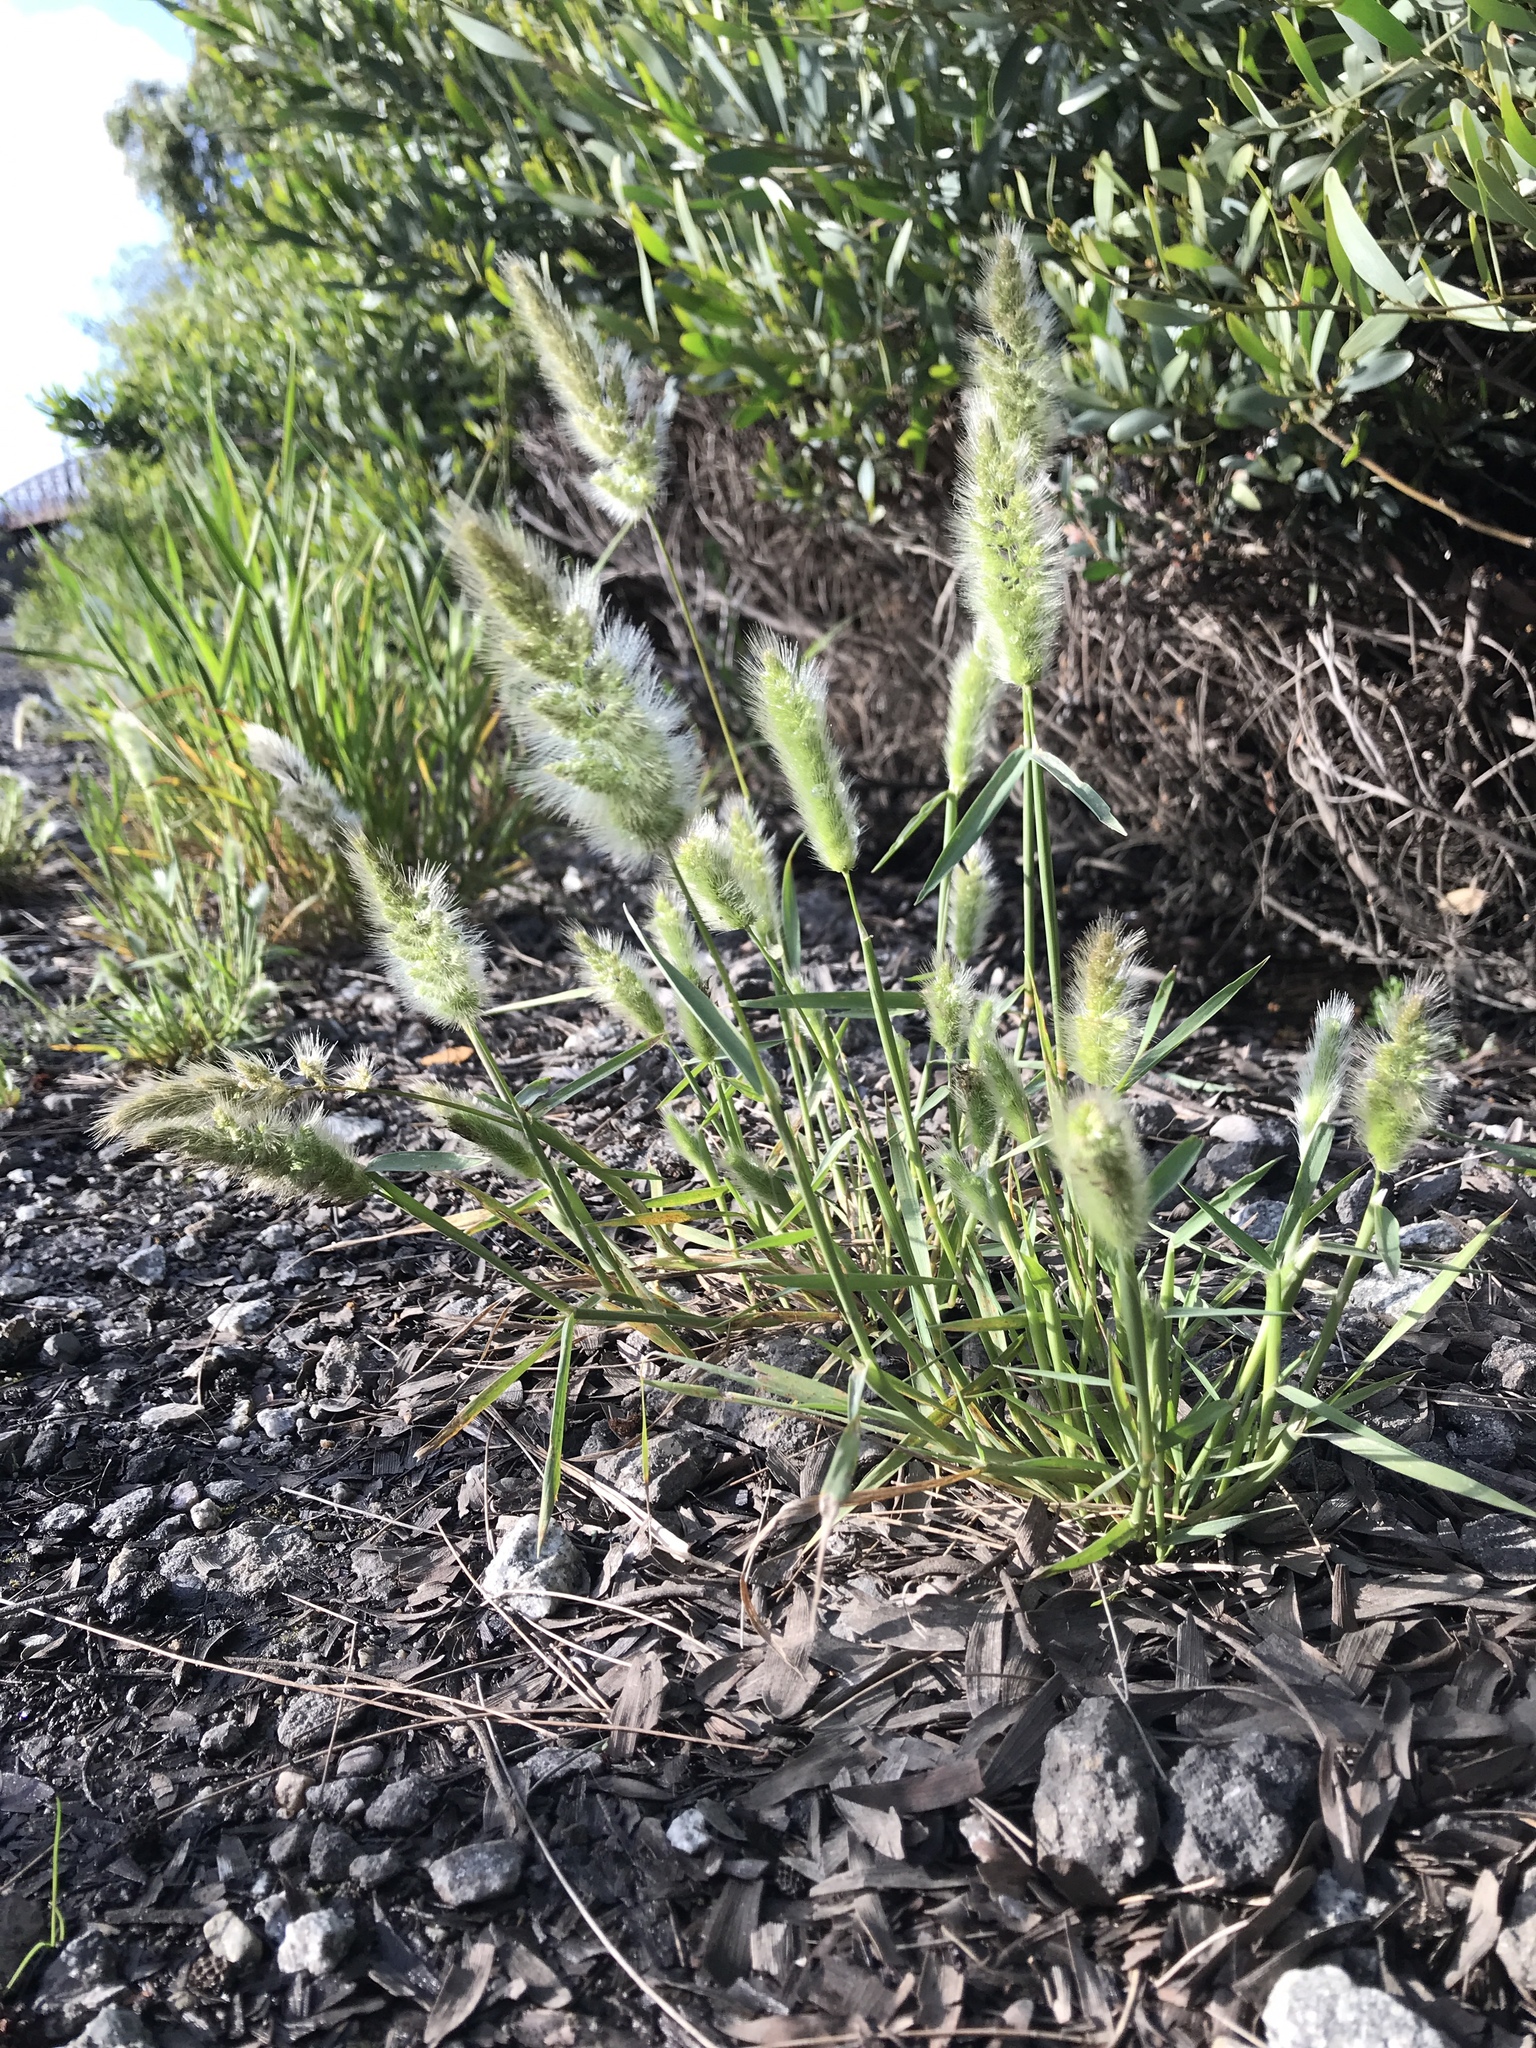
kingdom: Plantae
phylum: Tracheophyta
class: Liliopsida
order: Poales
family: Poaceae
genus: Polypogon
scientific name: Polypogon monspeliensis
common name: Annual rabbitsfoot grass
